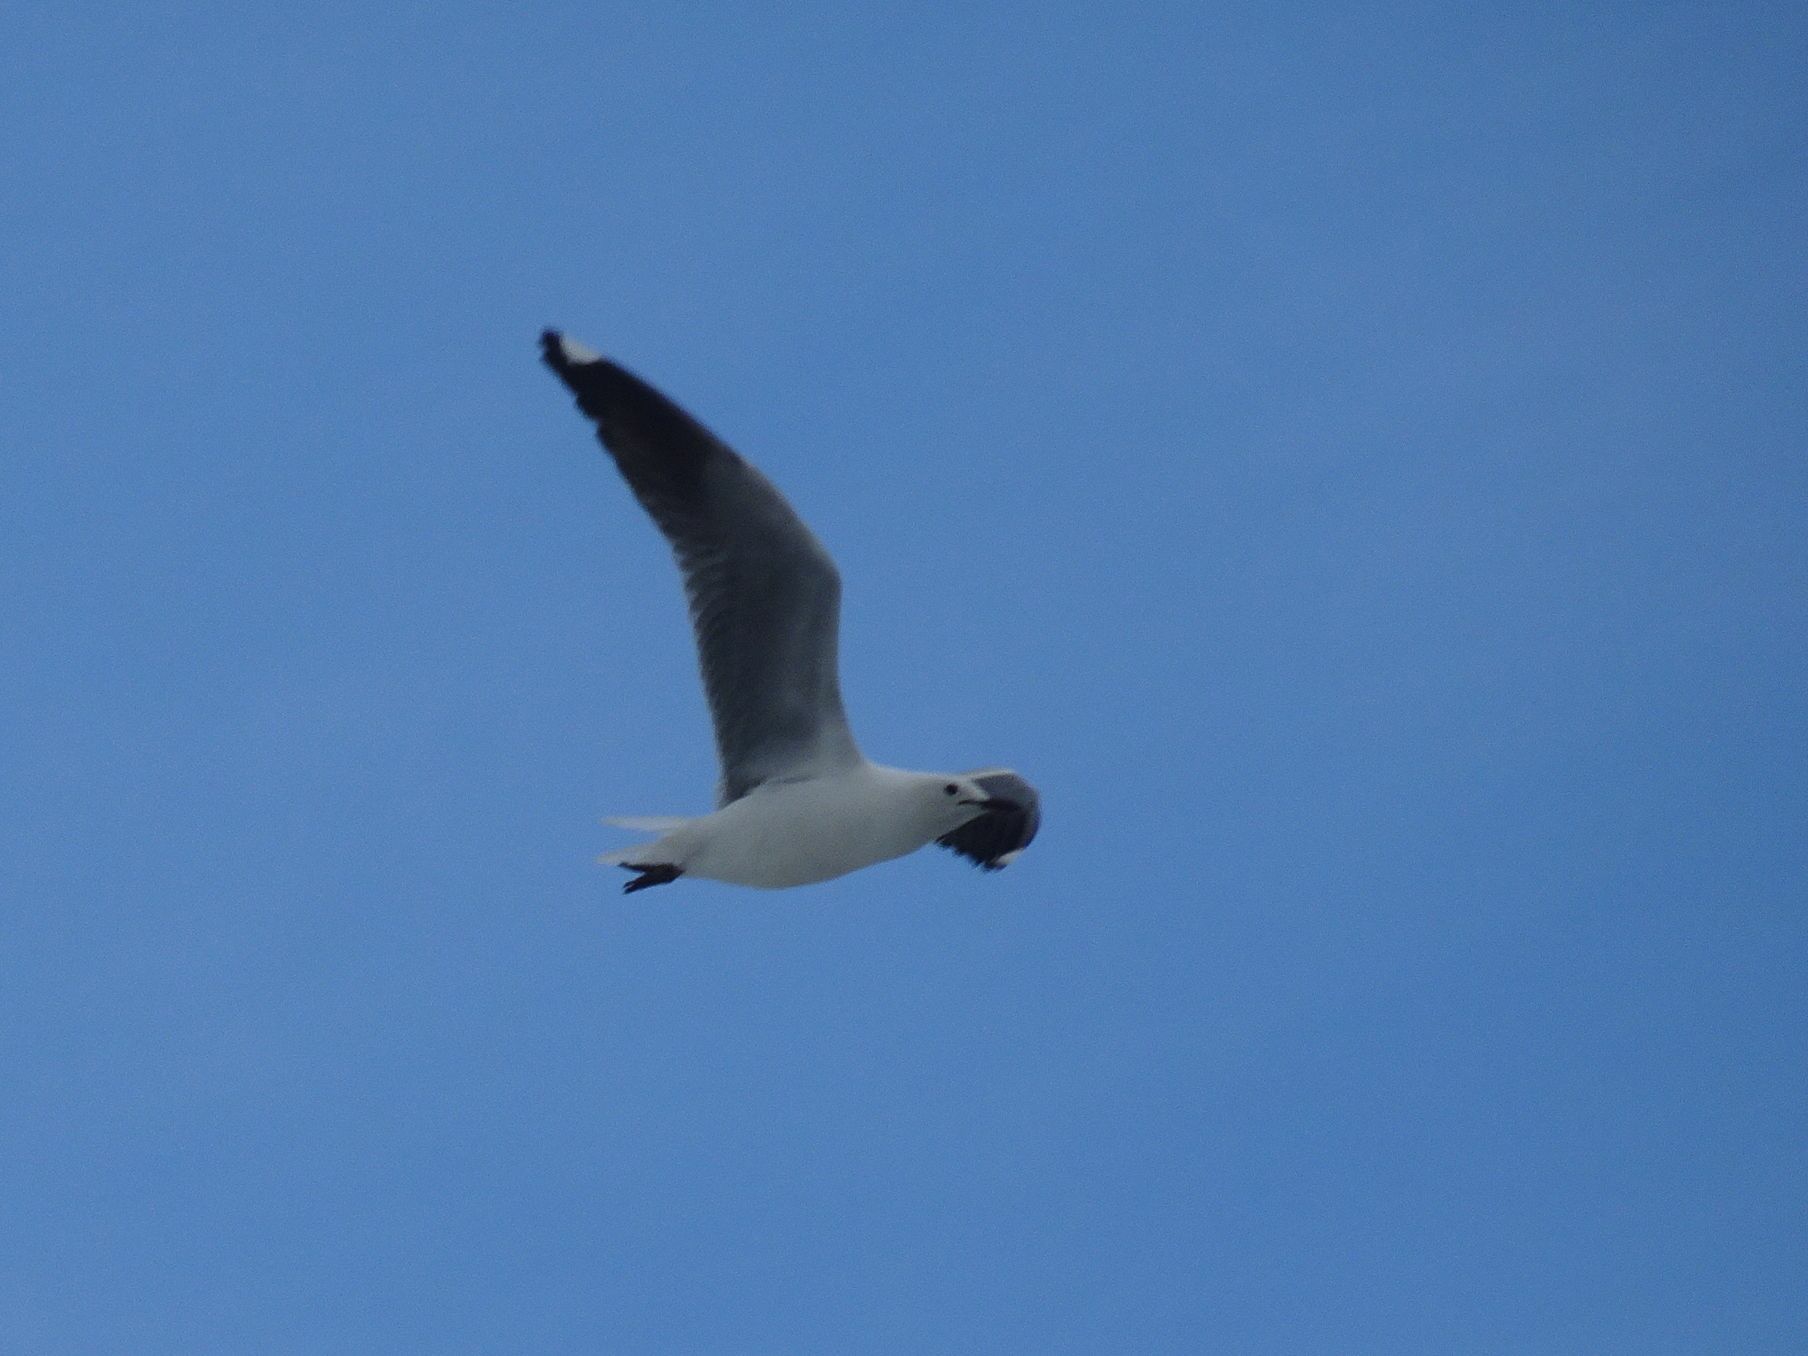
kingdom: Animalia
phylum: Chordata
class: Aves
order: Charadriiformes
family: Laridae
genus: Chroicocephalus
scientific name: Chroicocephalus hartlaubii
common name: Hartlaub's gull
